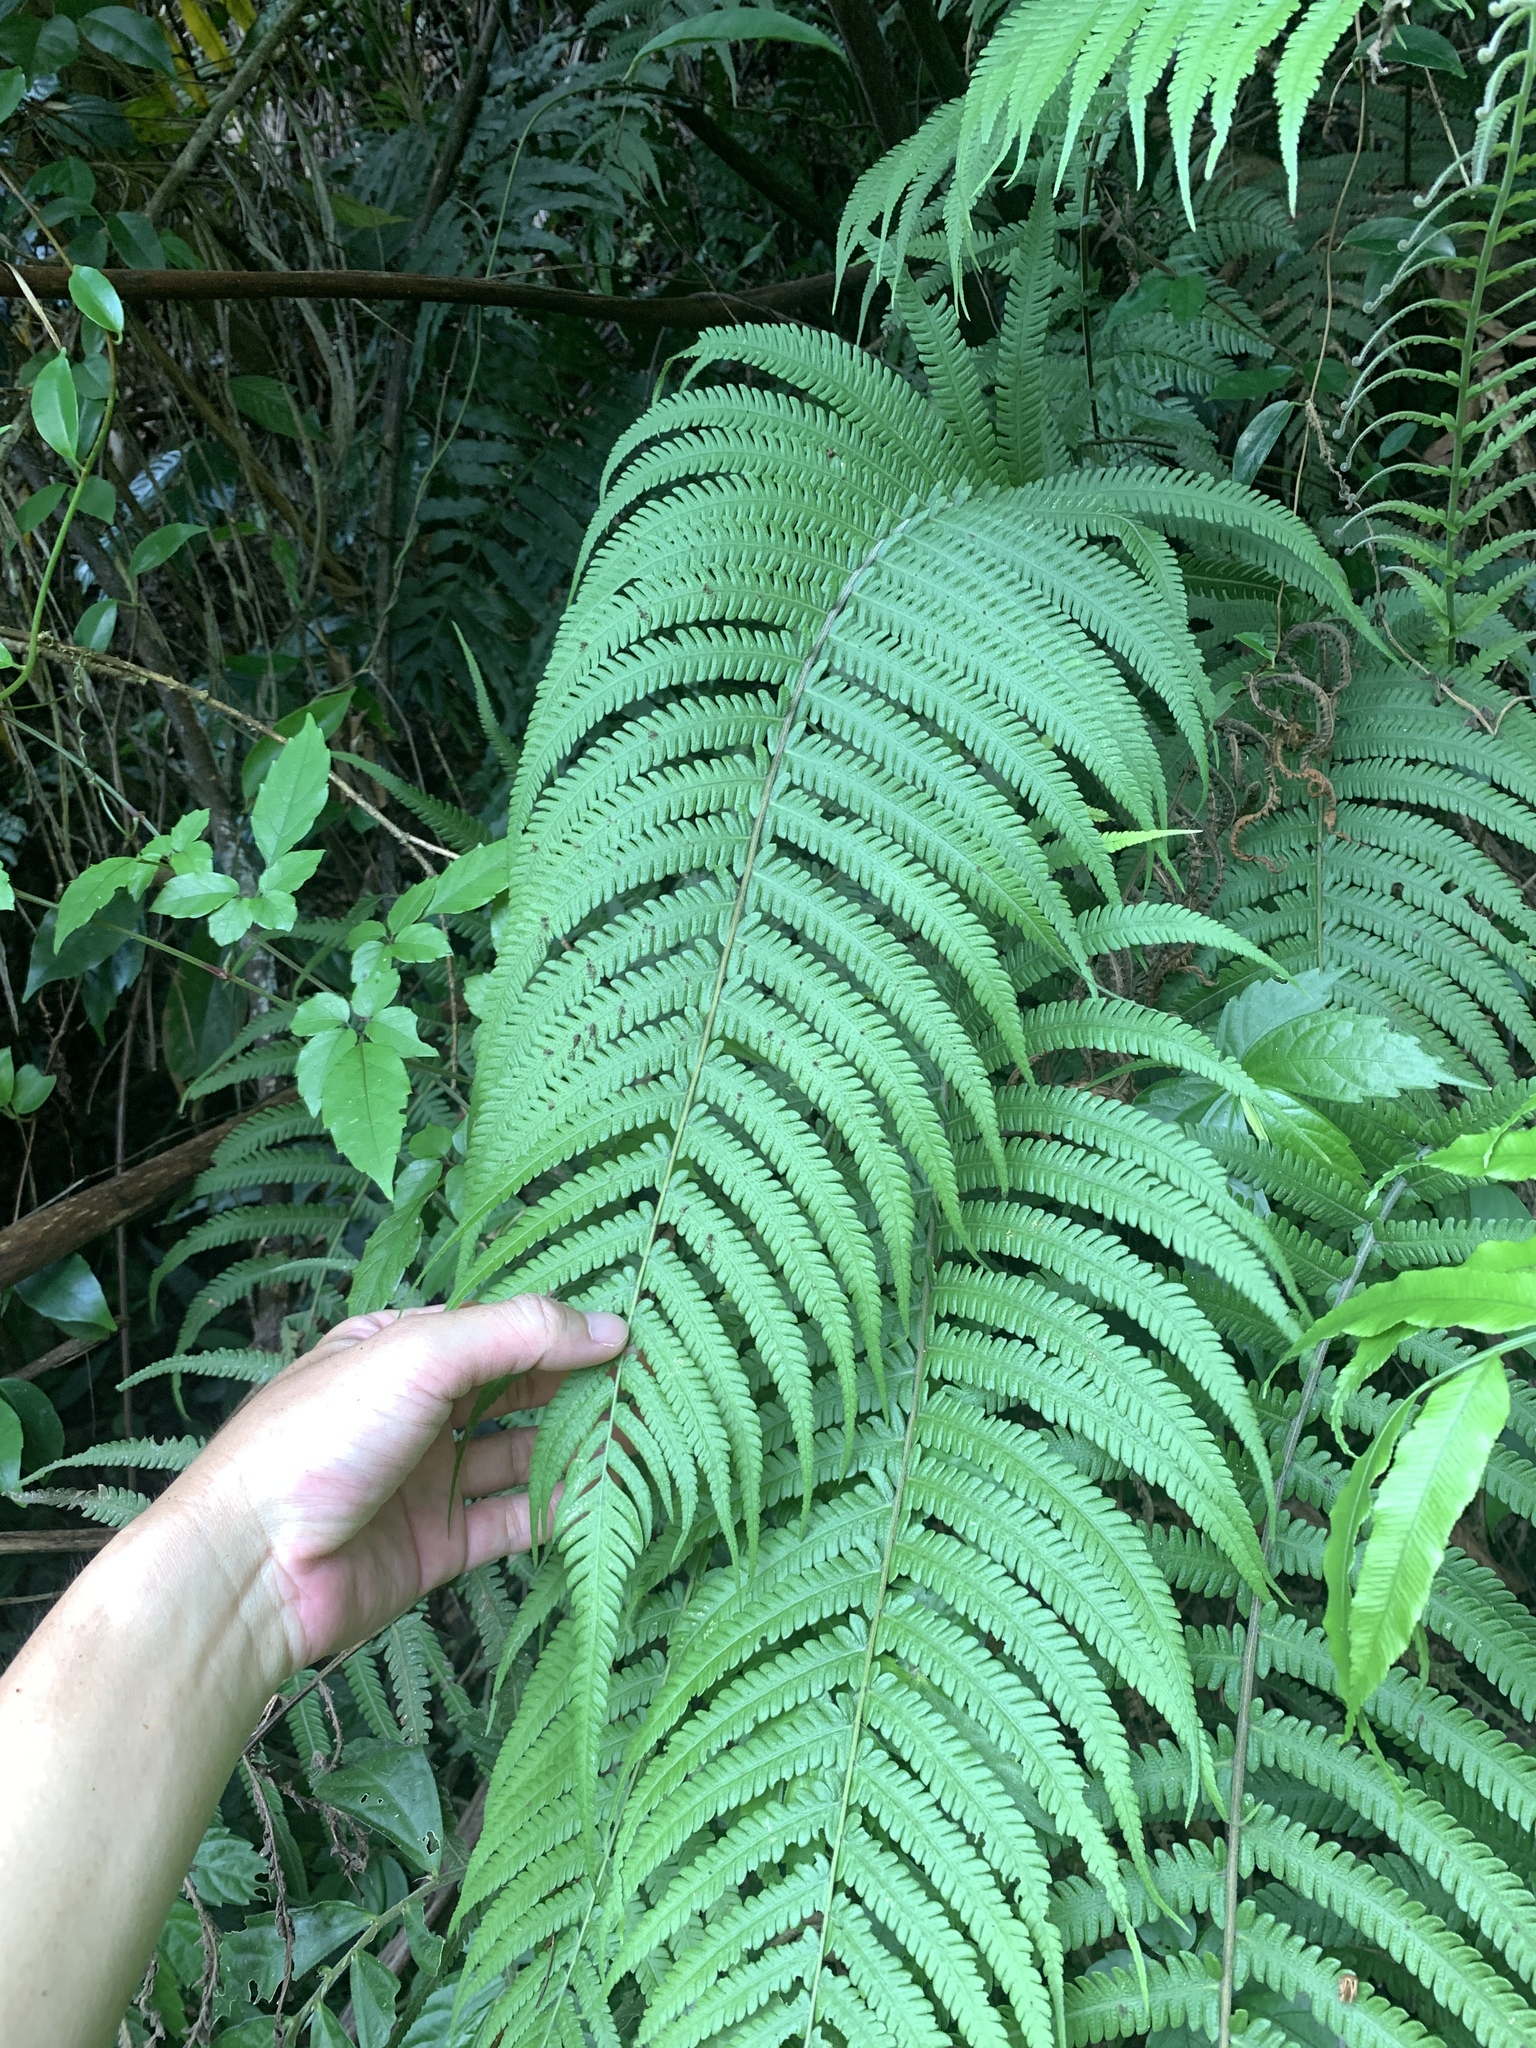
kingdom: Plantae
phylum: Tracheophyta
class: Polypodiopsida
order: Polypodiales
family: Thelypteridaceae
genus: Christella
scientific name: Christella parasitica
